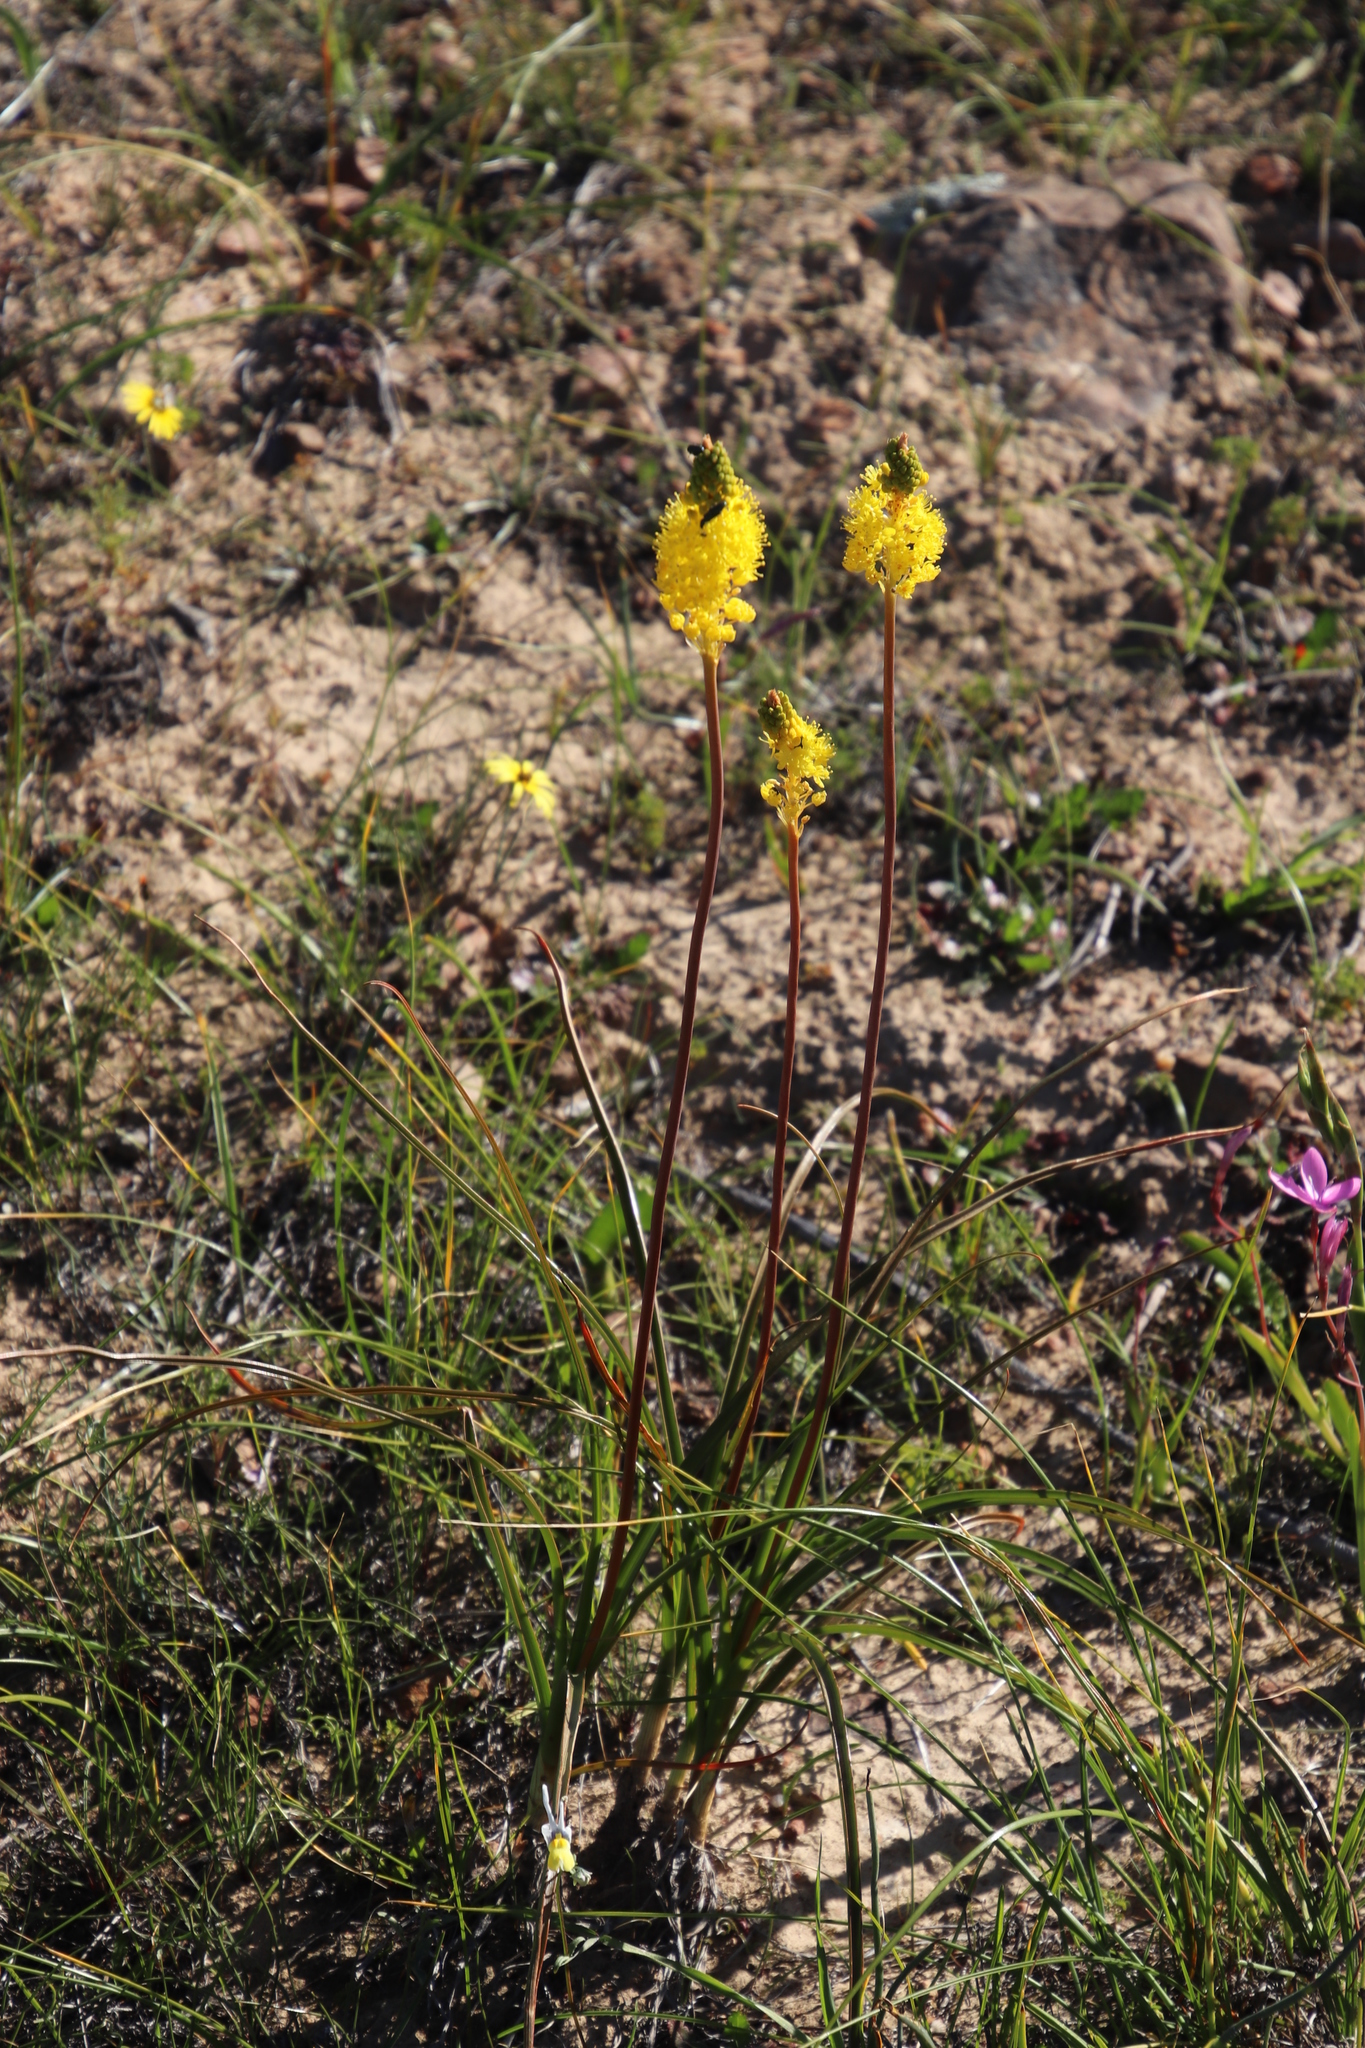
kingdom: Plantae
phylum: Tracheophyta
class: Liliopsida
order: Asparagales
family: Asphodelaceae
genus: Bulbinella
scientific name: Bulbinella nutans
